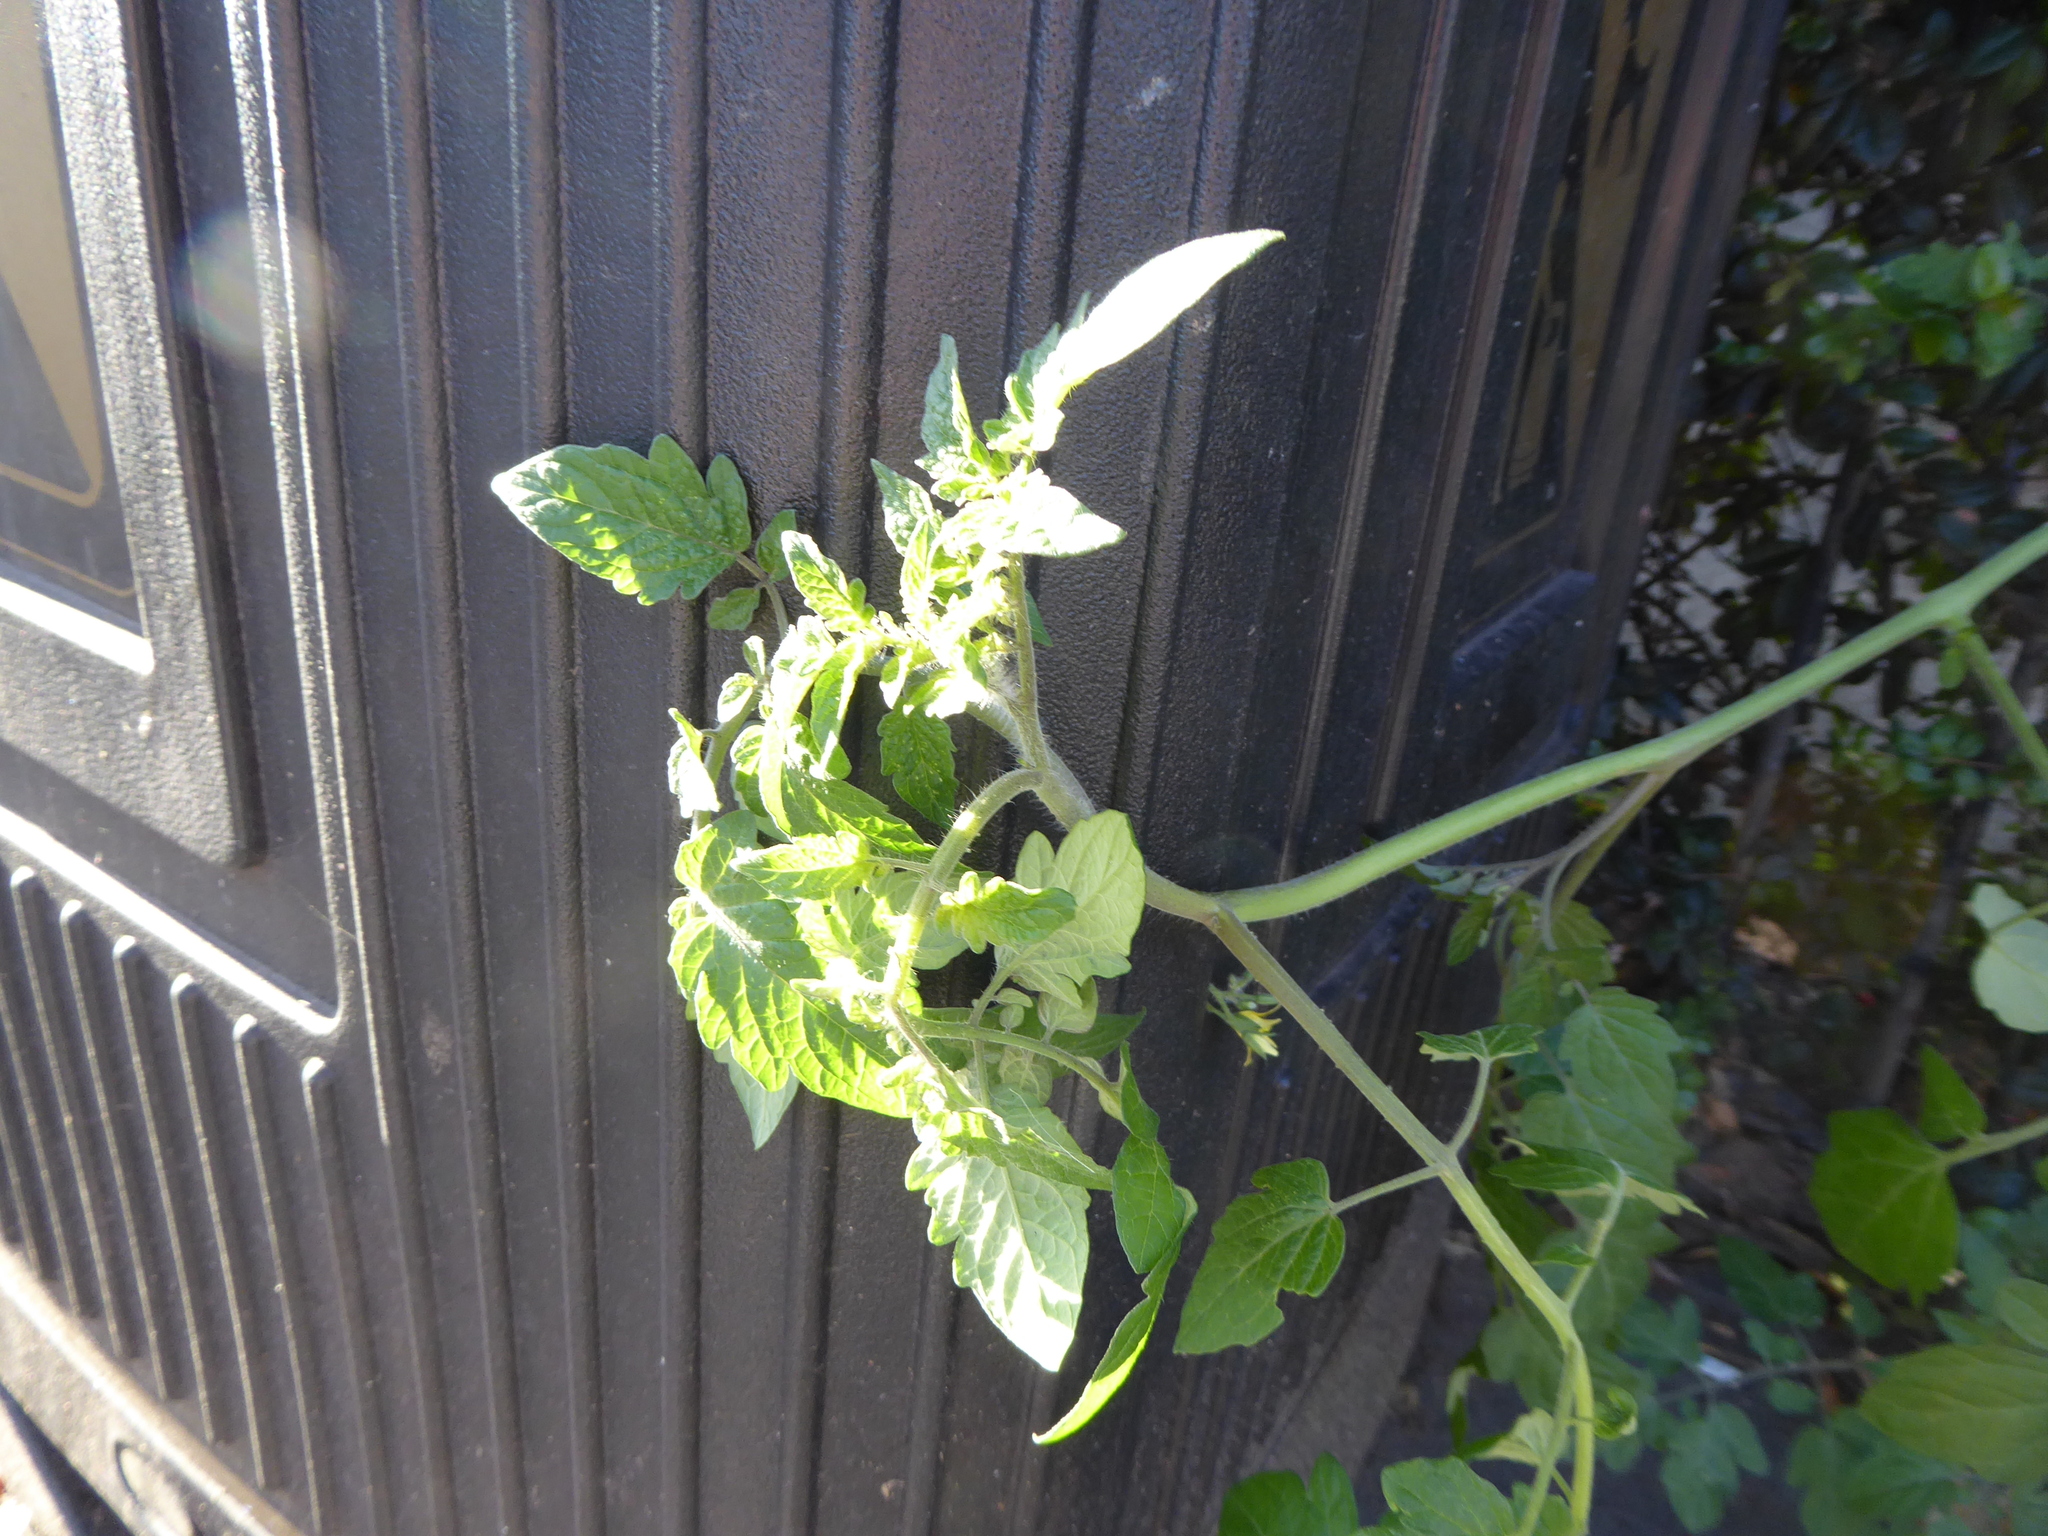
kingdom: Plantae
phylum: Tracheophyta
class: Magnoliopsida
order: Solanales
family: Solanaceae
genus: Solanum
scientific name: Solanum lycopersicum
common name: Garden tomato
